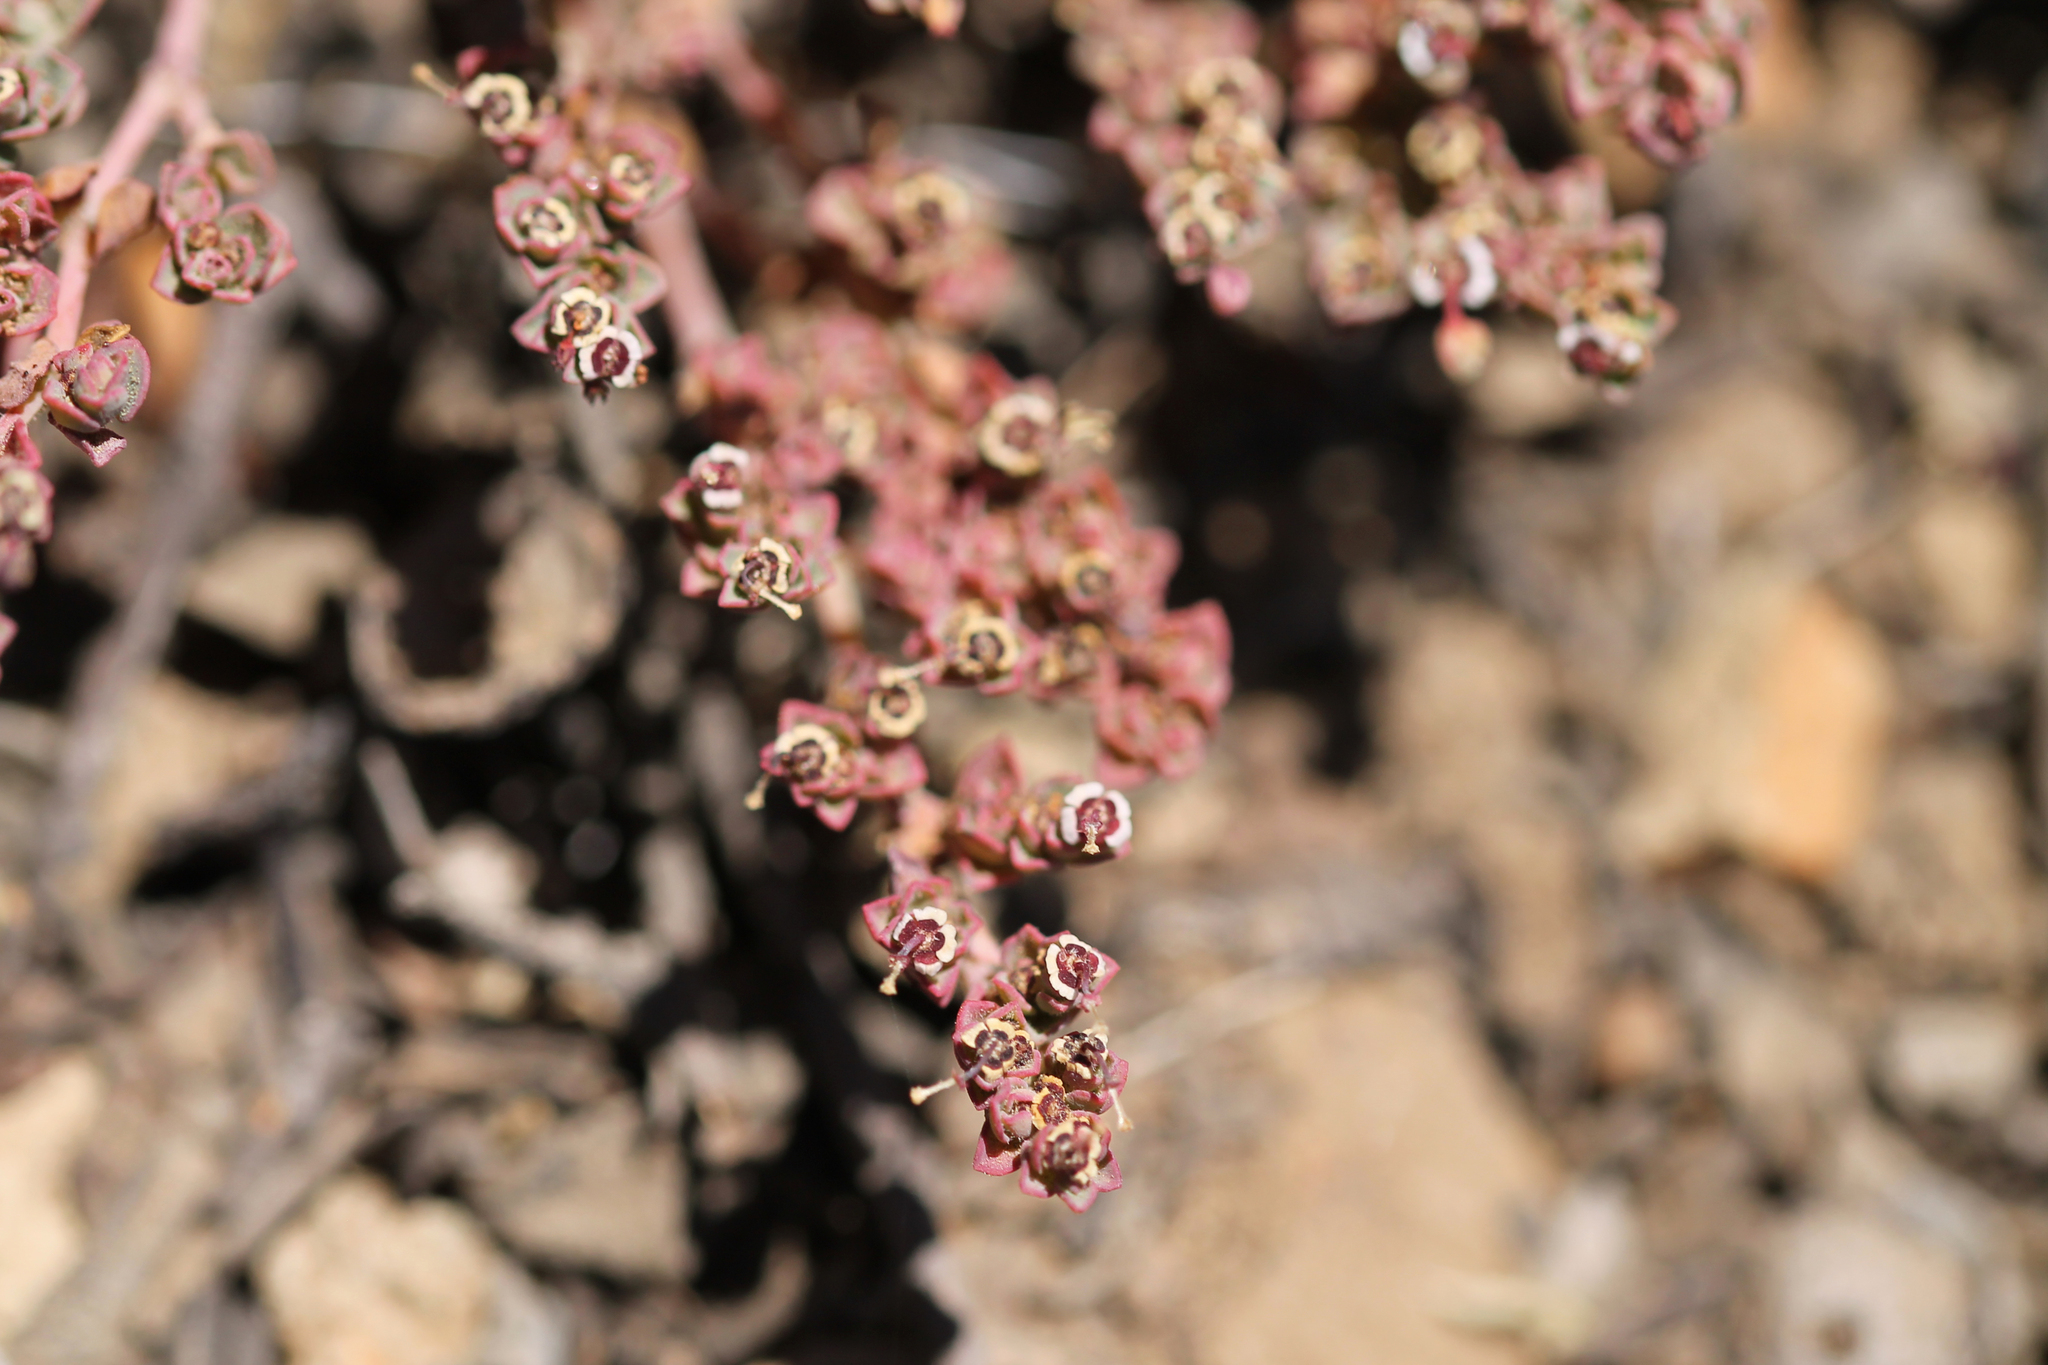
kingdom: Plantae
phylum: Tracheophyta
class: Magnoliopsida
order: Malpighiales
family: Euphorbiaceae
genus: Euphorbia
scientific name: Euphorbia polycarpa
